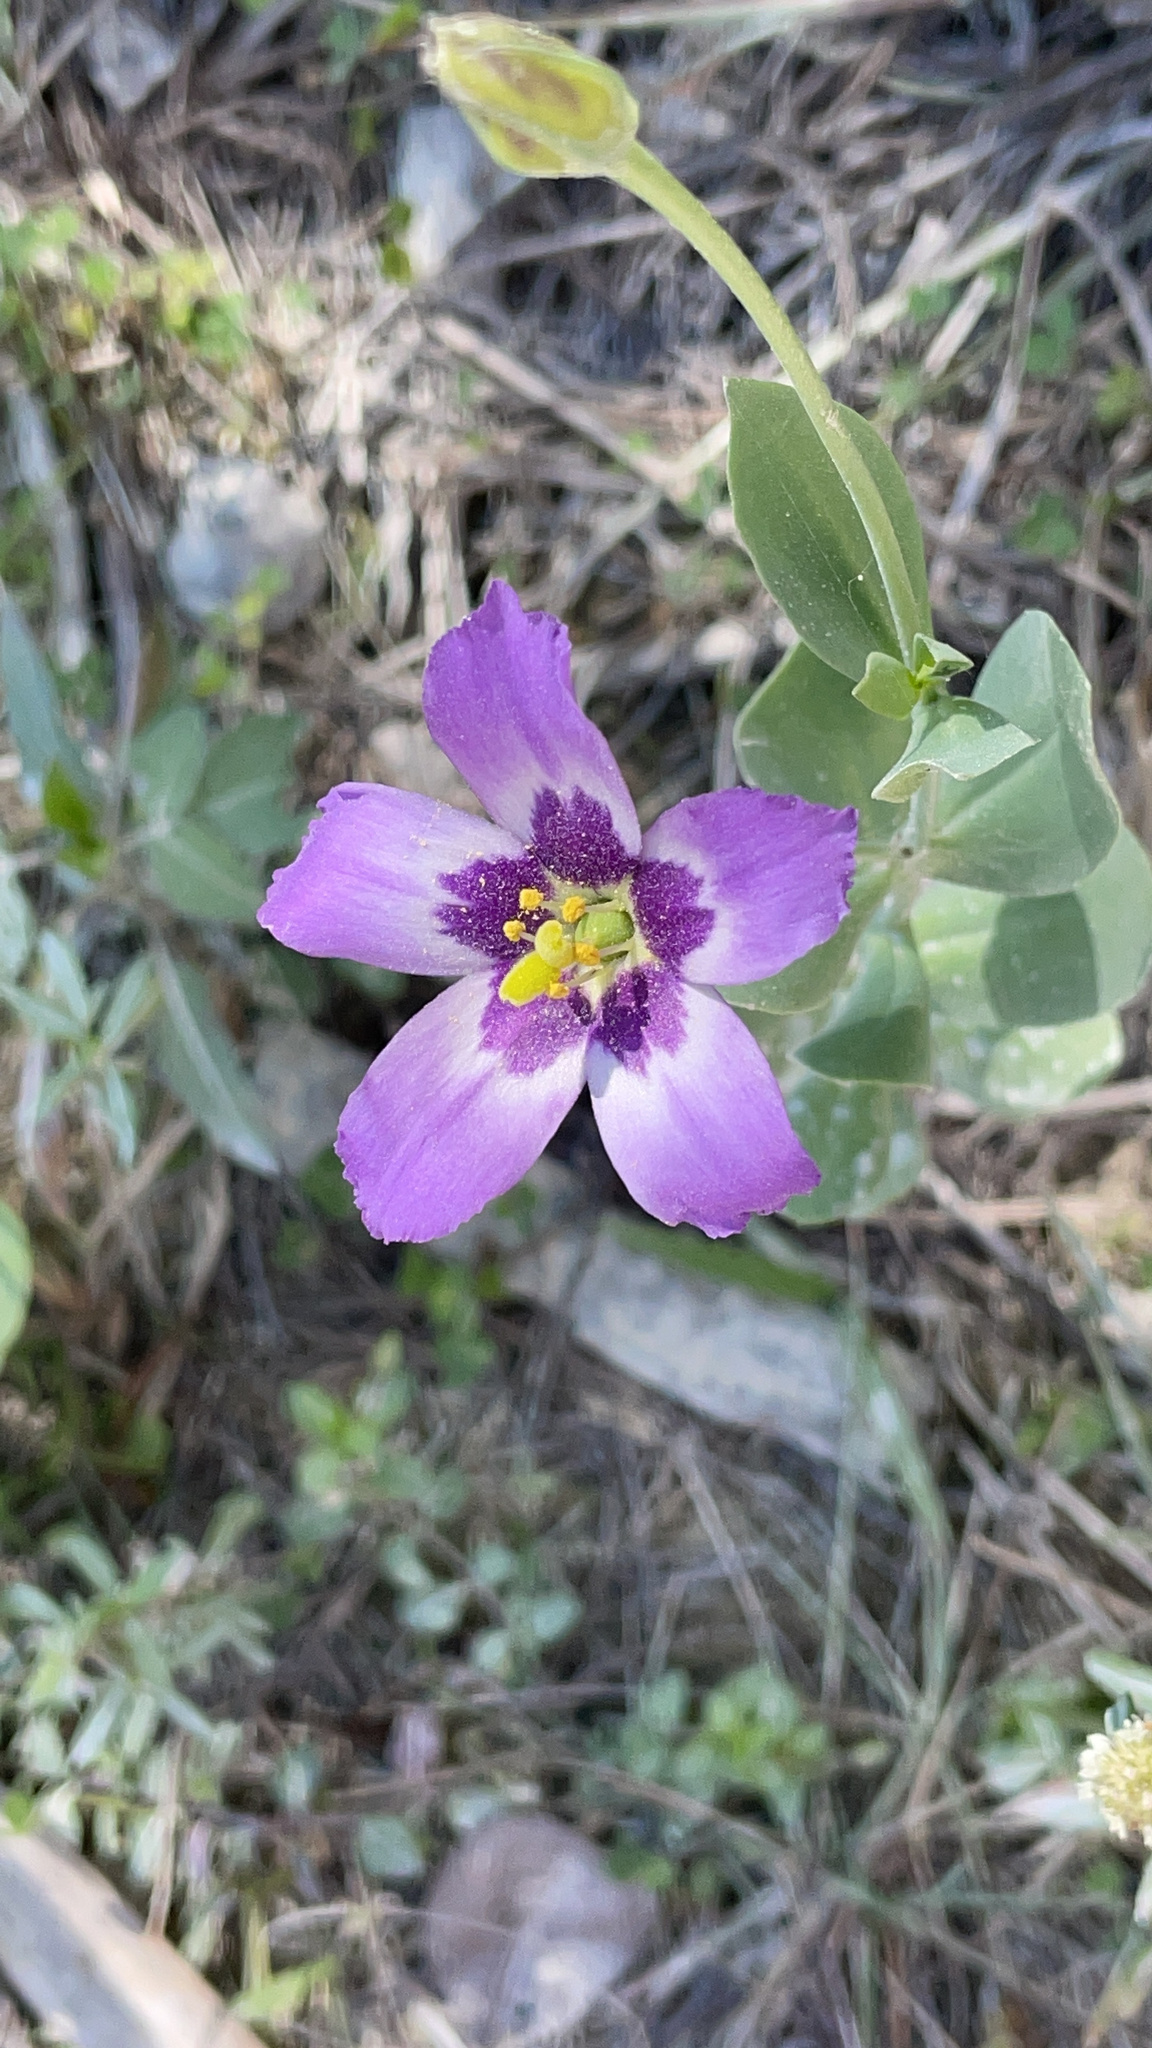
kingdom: Plantae
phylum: Tracheophyta
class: Magnoliopsida
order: Gentianales
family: Gentianaceae
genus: Eustoma
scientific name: Eustoma exaltatum
